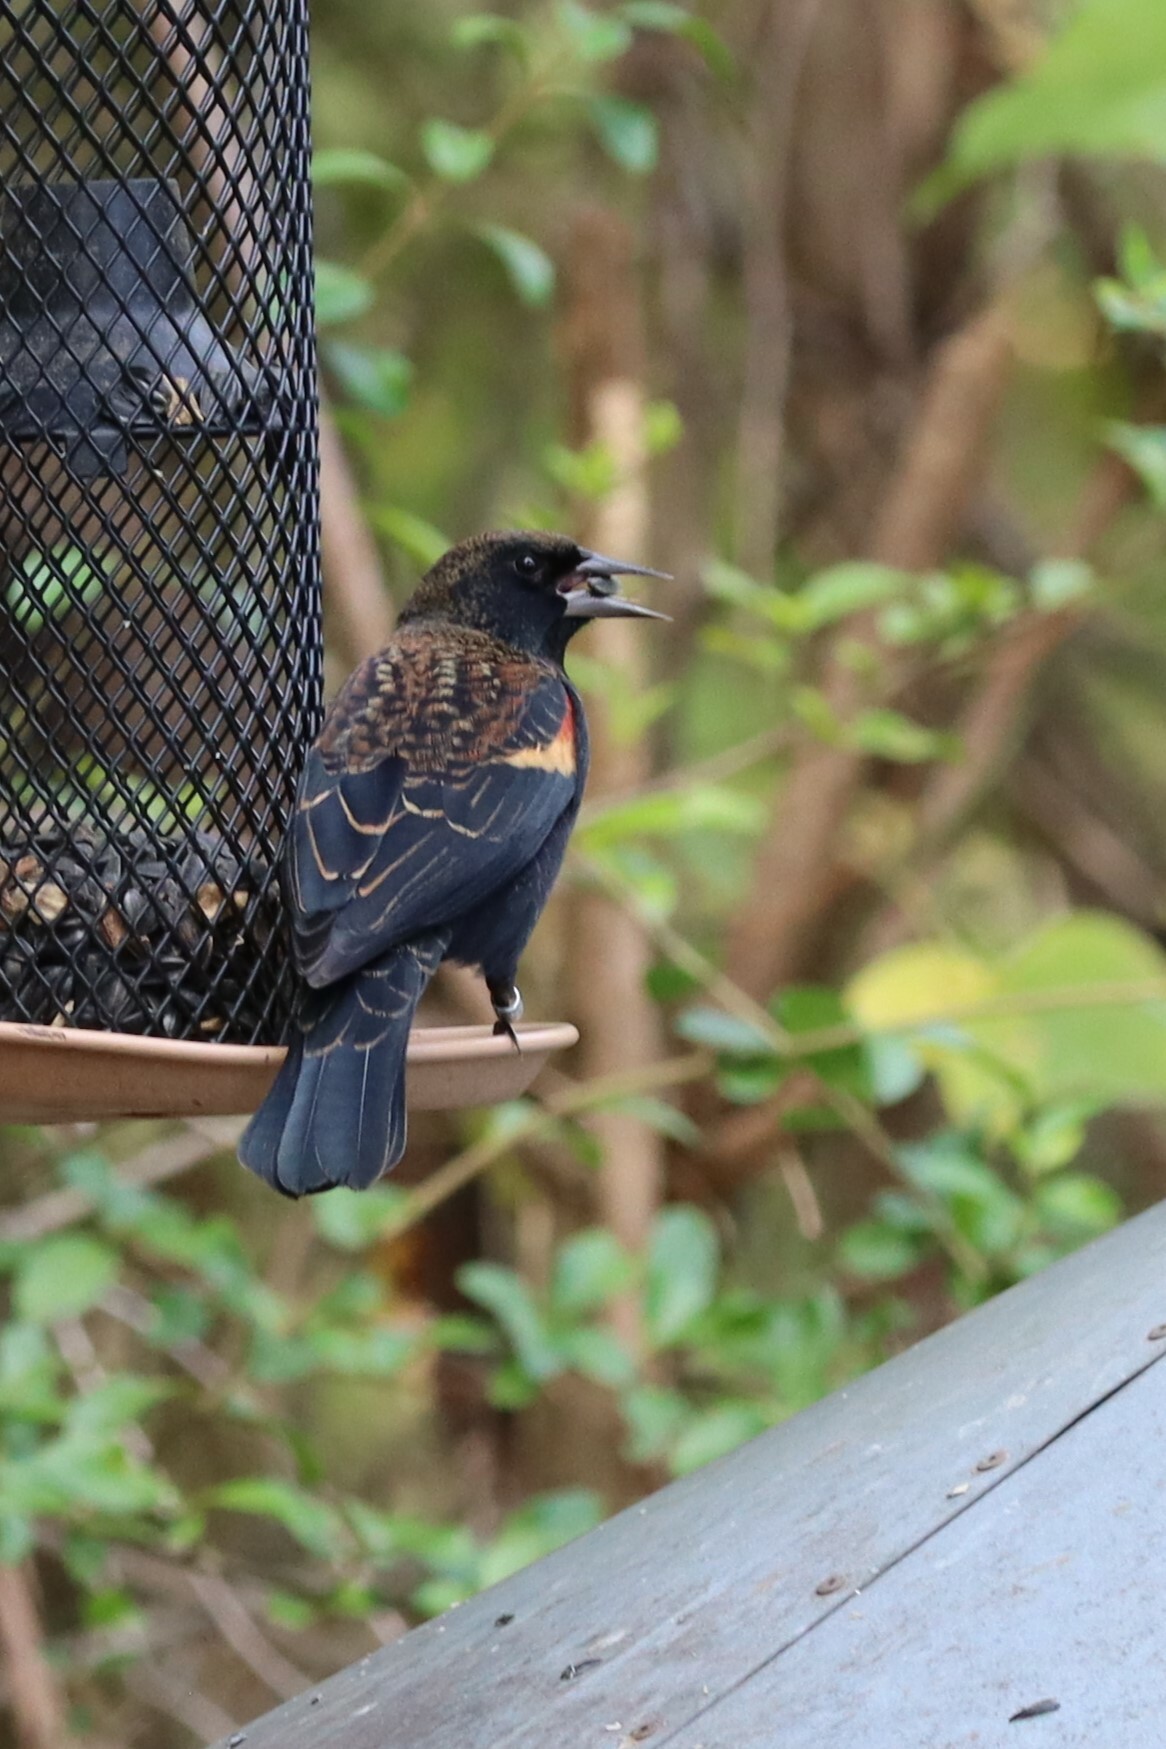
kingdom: Animalia
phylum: Chordata
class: Aves
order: Passeriformes
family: Icteridae
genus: Agelaius
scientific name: Agelaius phoeniceus
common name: Red-winged blackbird
